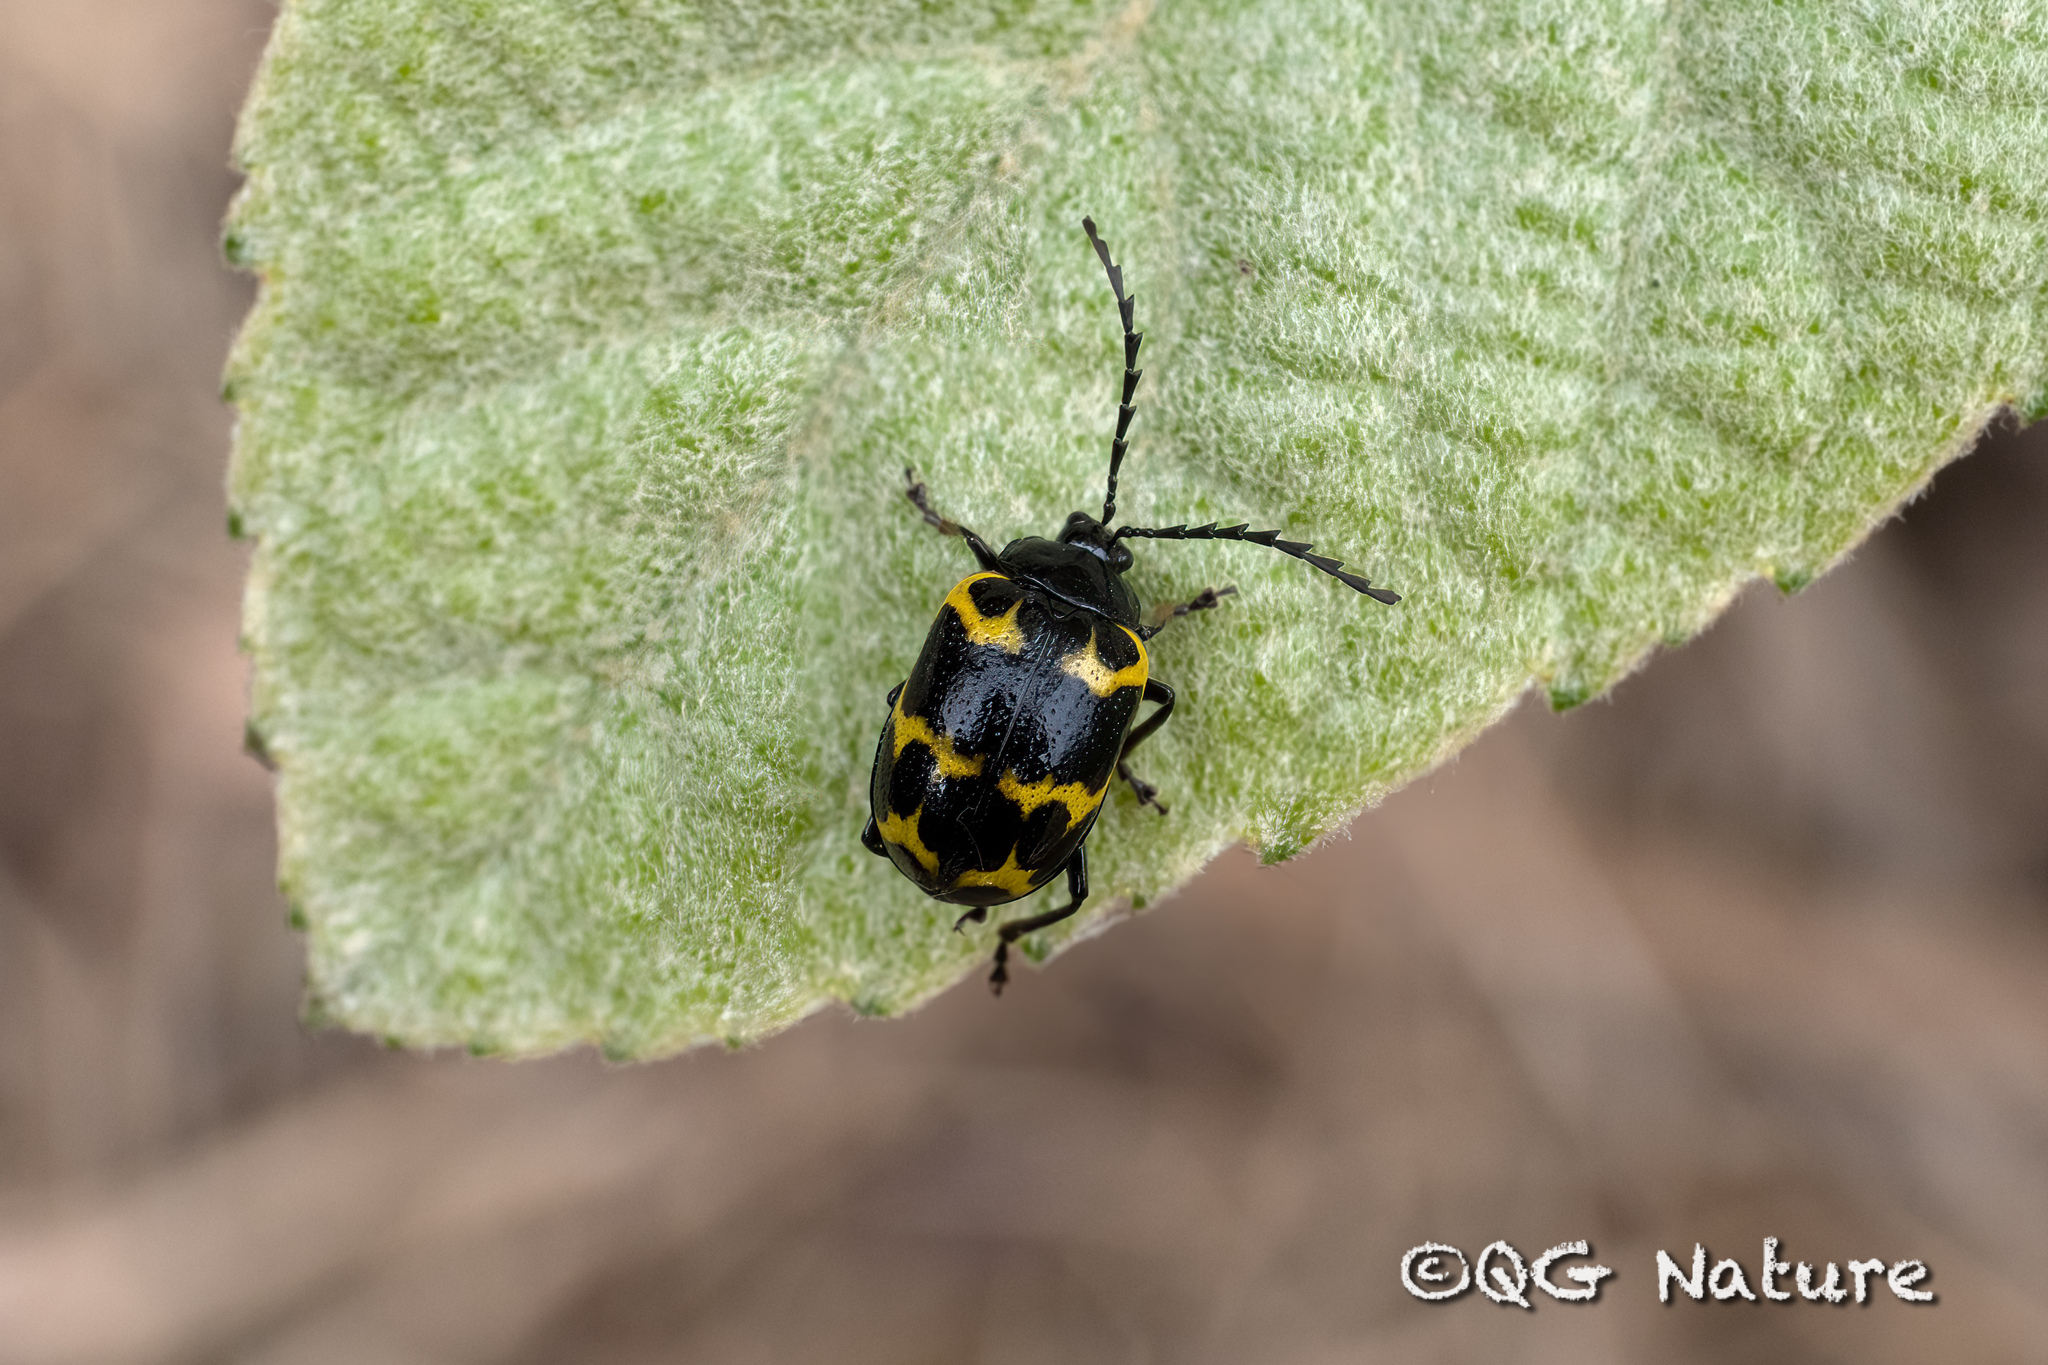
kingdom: Animalia
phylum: Arthropoda
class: Insecta
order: Coleoptera
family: Chrysomelidae
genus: Gallerucida
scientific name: Gallerucida bifasciata
